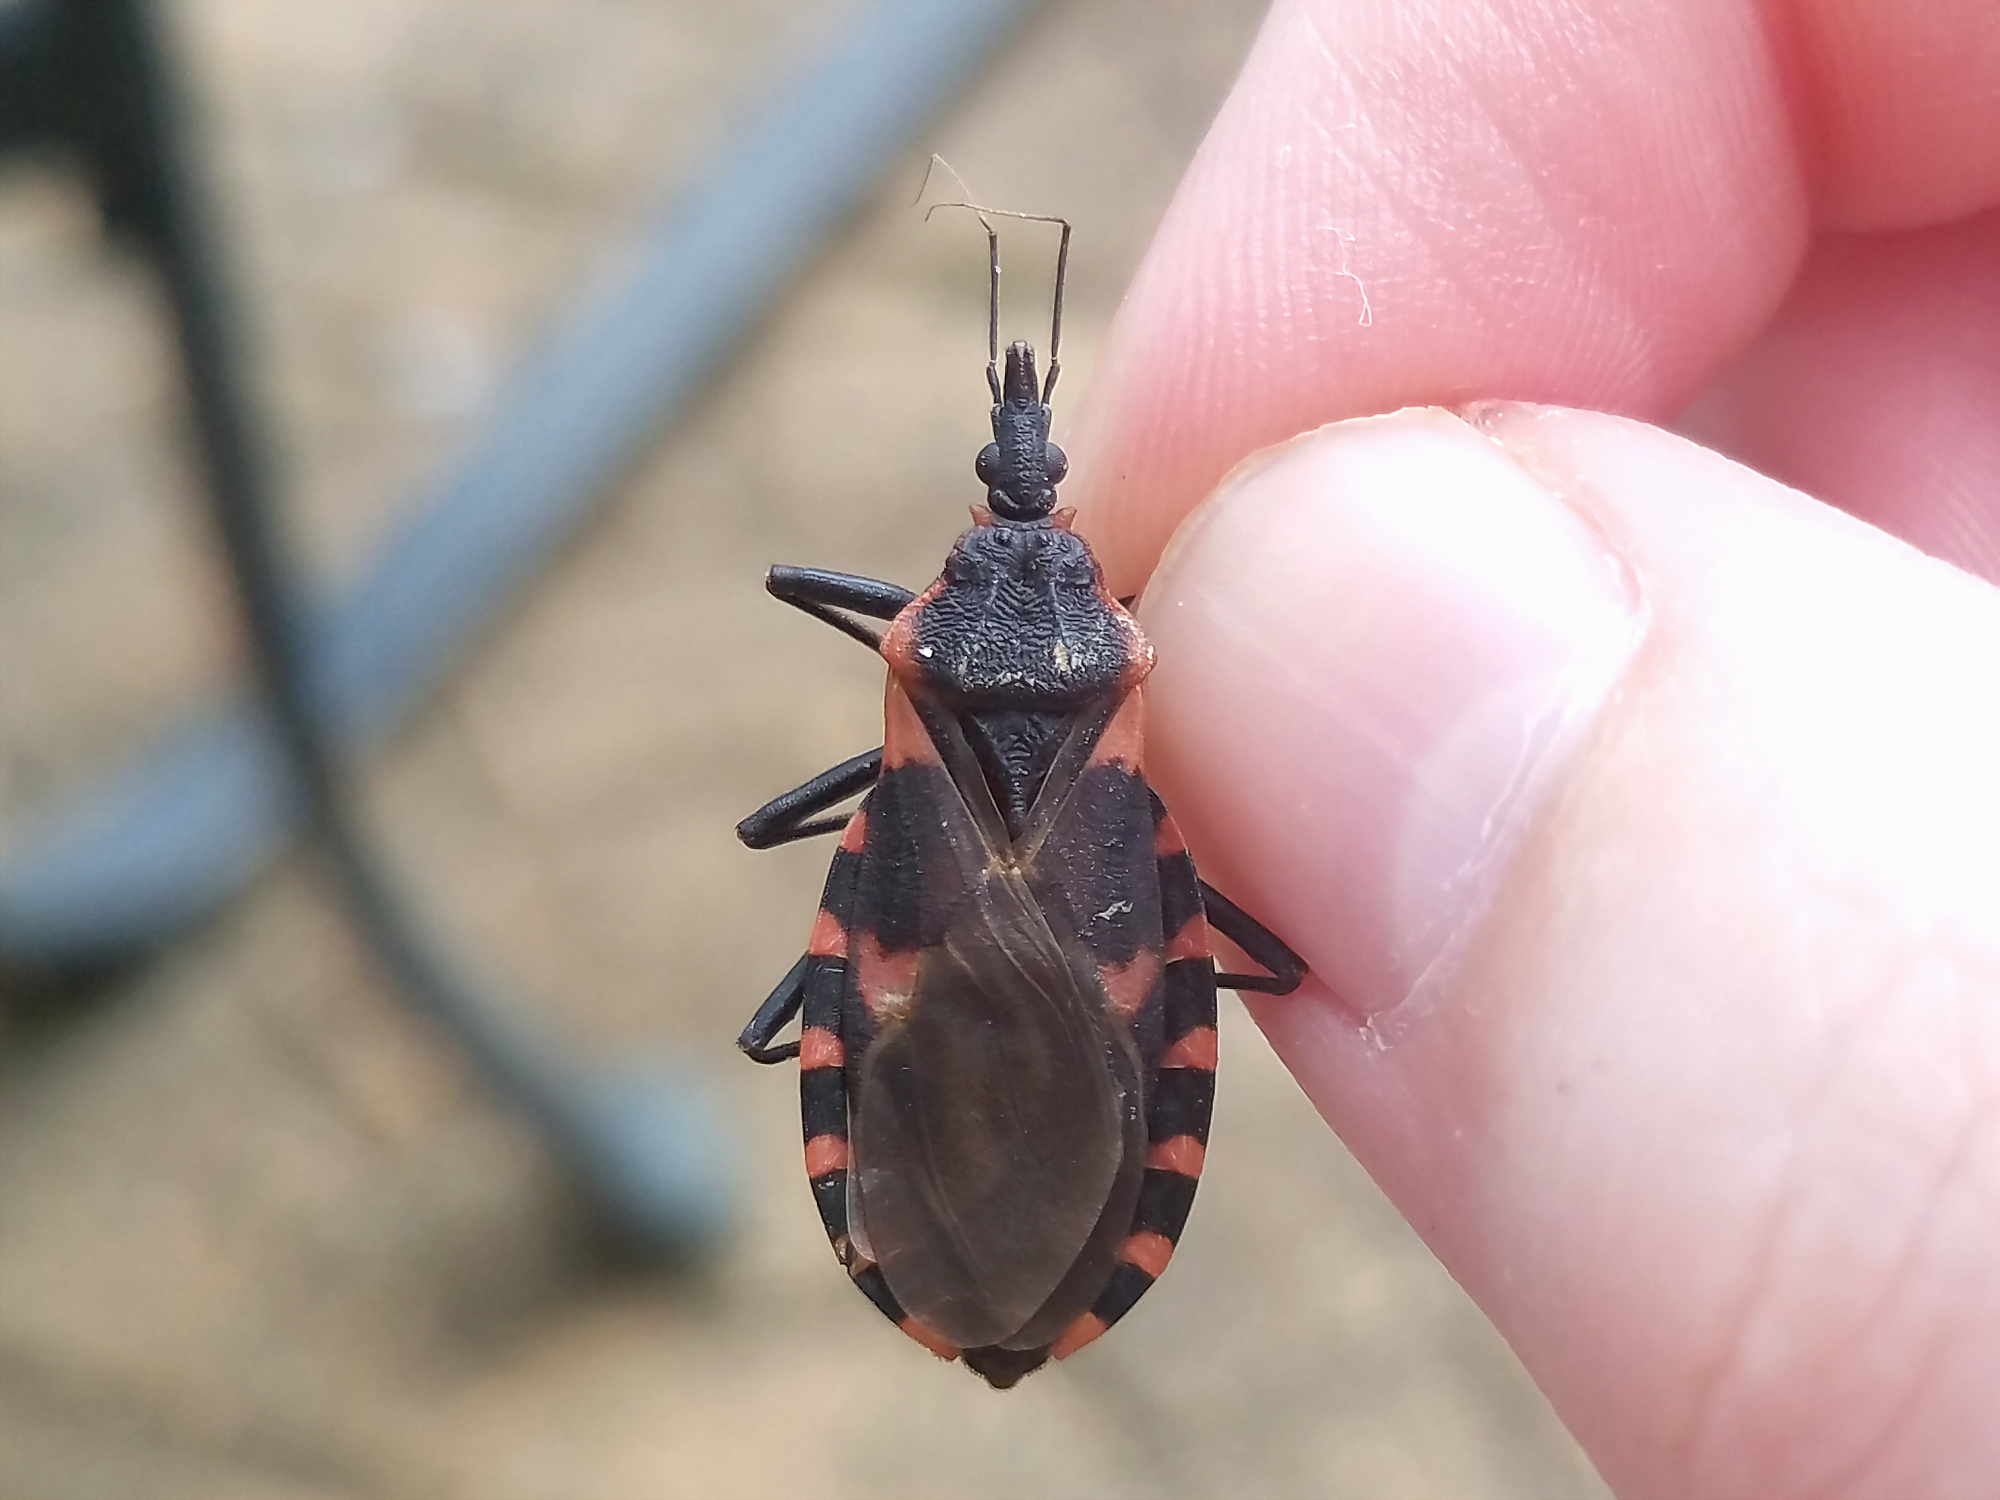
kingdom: Animalia
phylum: Arthropoda
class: Insecta
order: Hemiptera
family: Reduviidae
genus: Triatoma
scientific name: Triatoma sanguisuga
